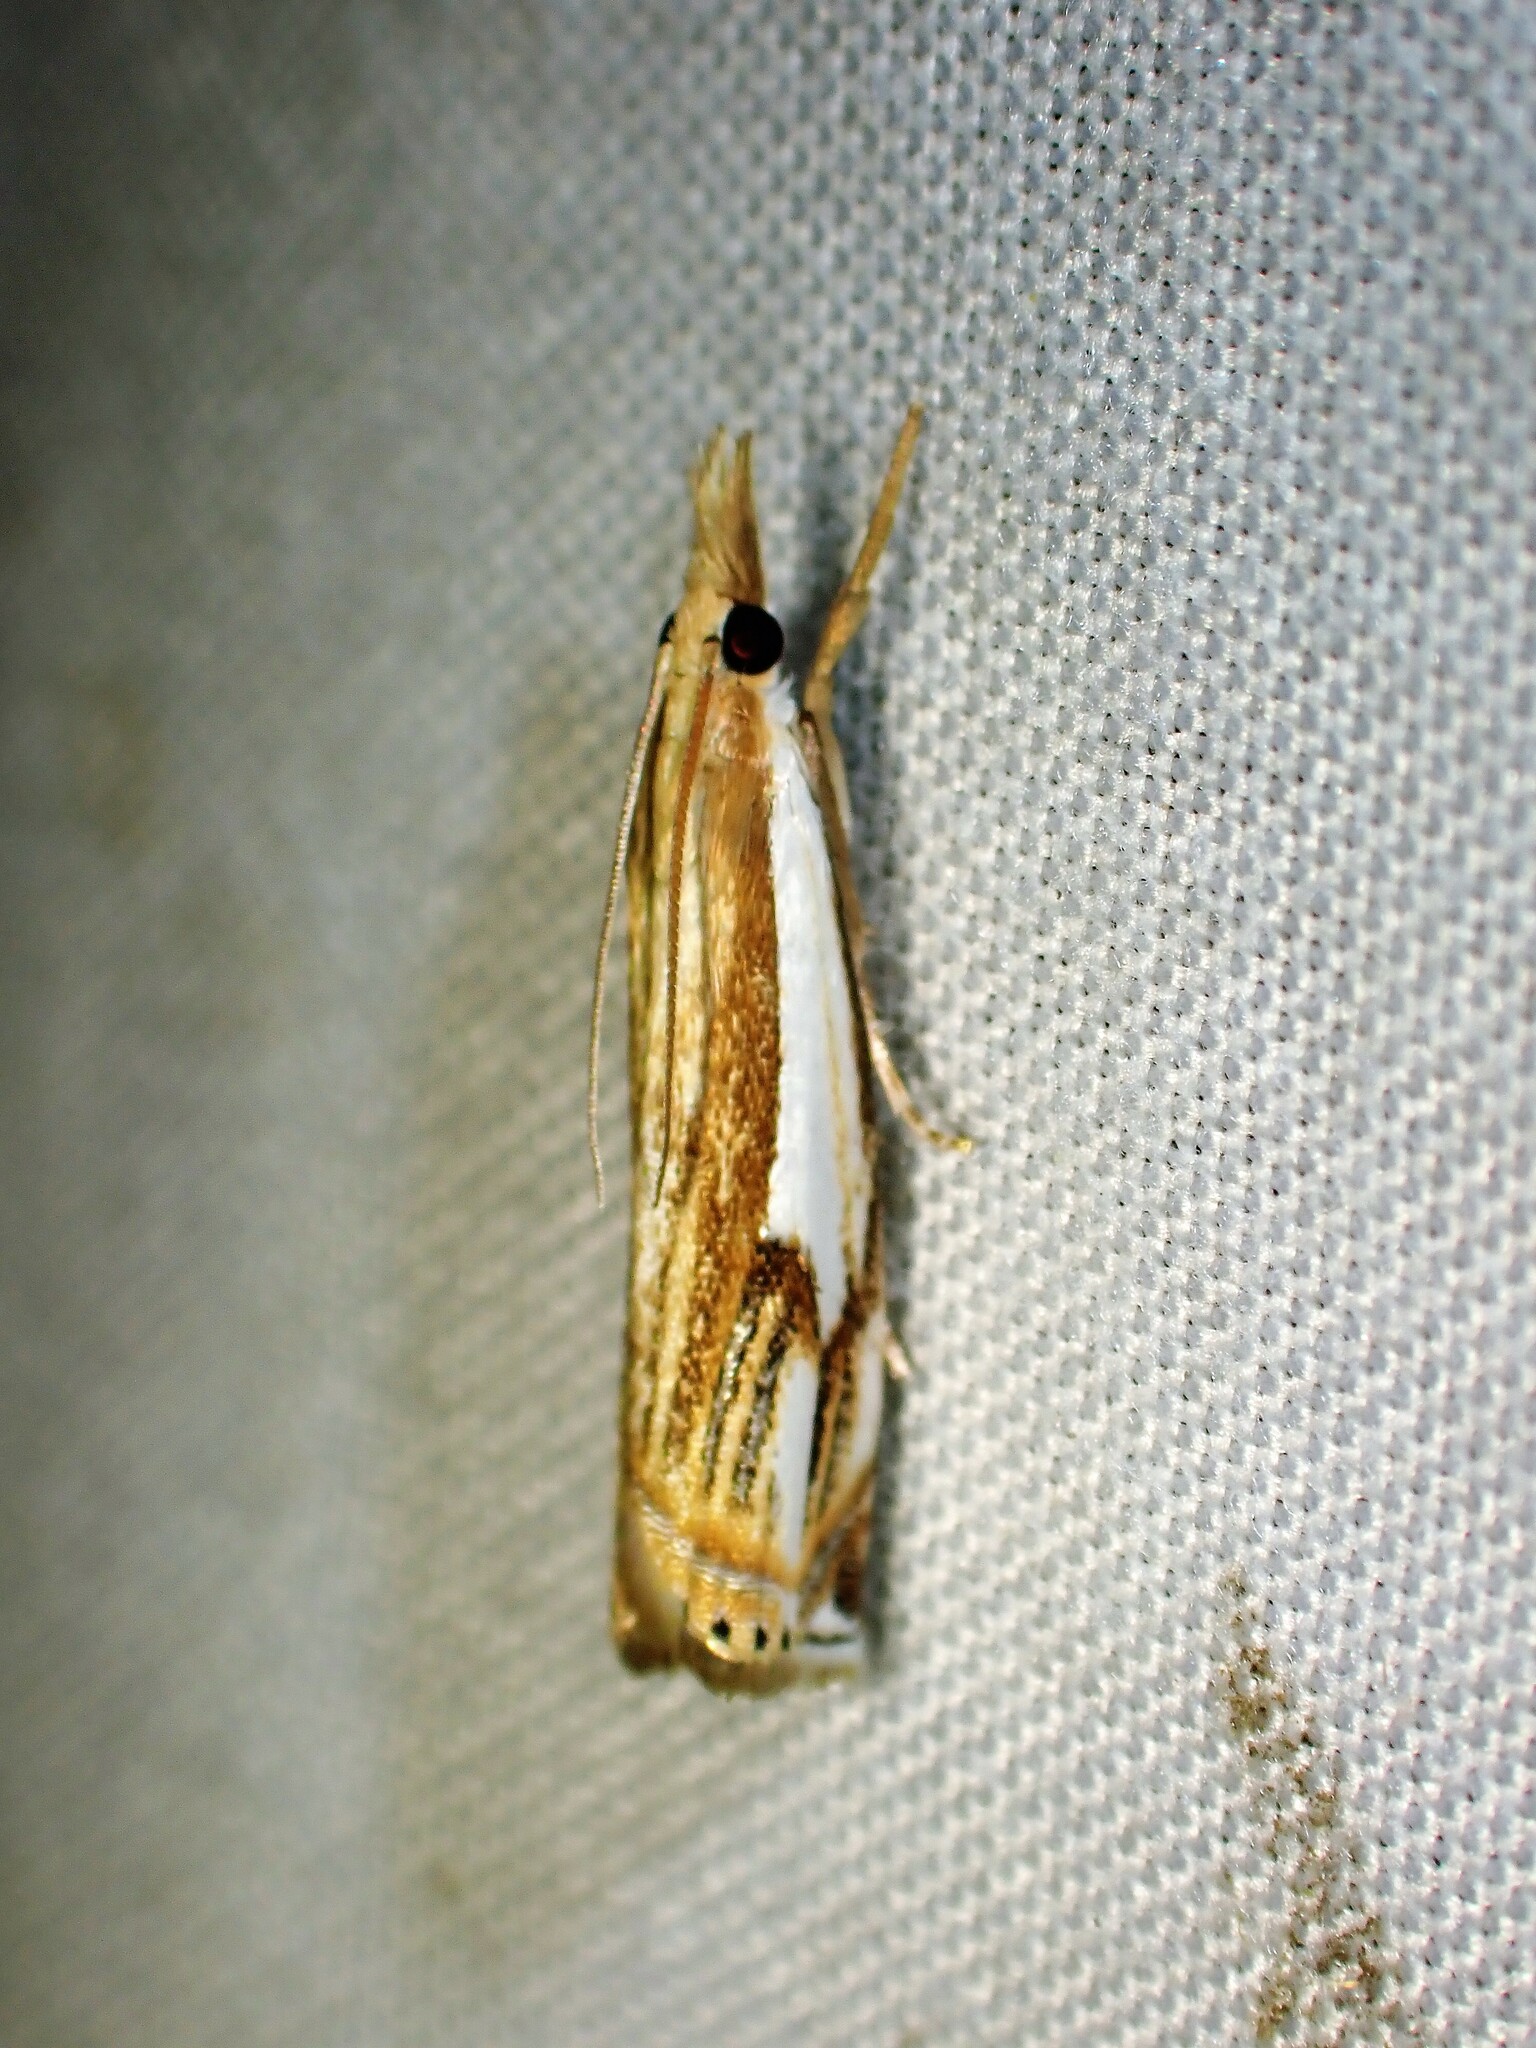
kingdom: Animalia
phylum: Arthropoda
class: Insecta
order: Lepidoptera
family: Crambidae
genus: Crambus
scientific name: Crambus agitatellus
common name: Double-banded grass-veneer
